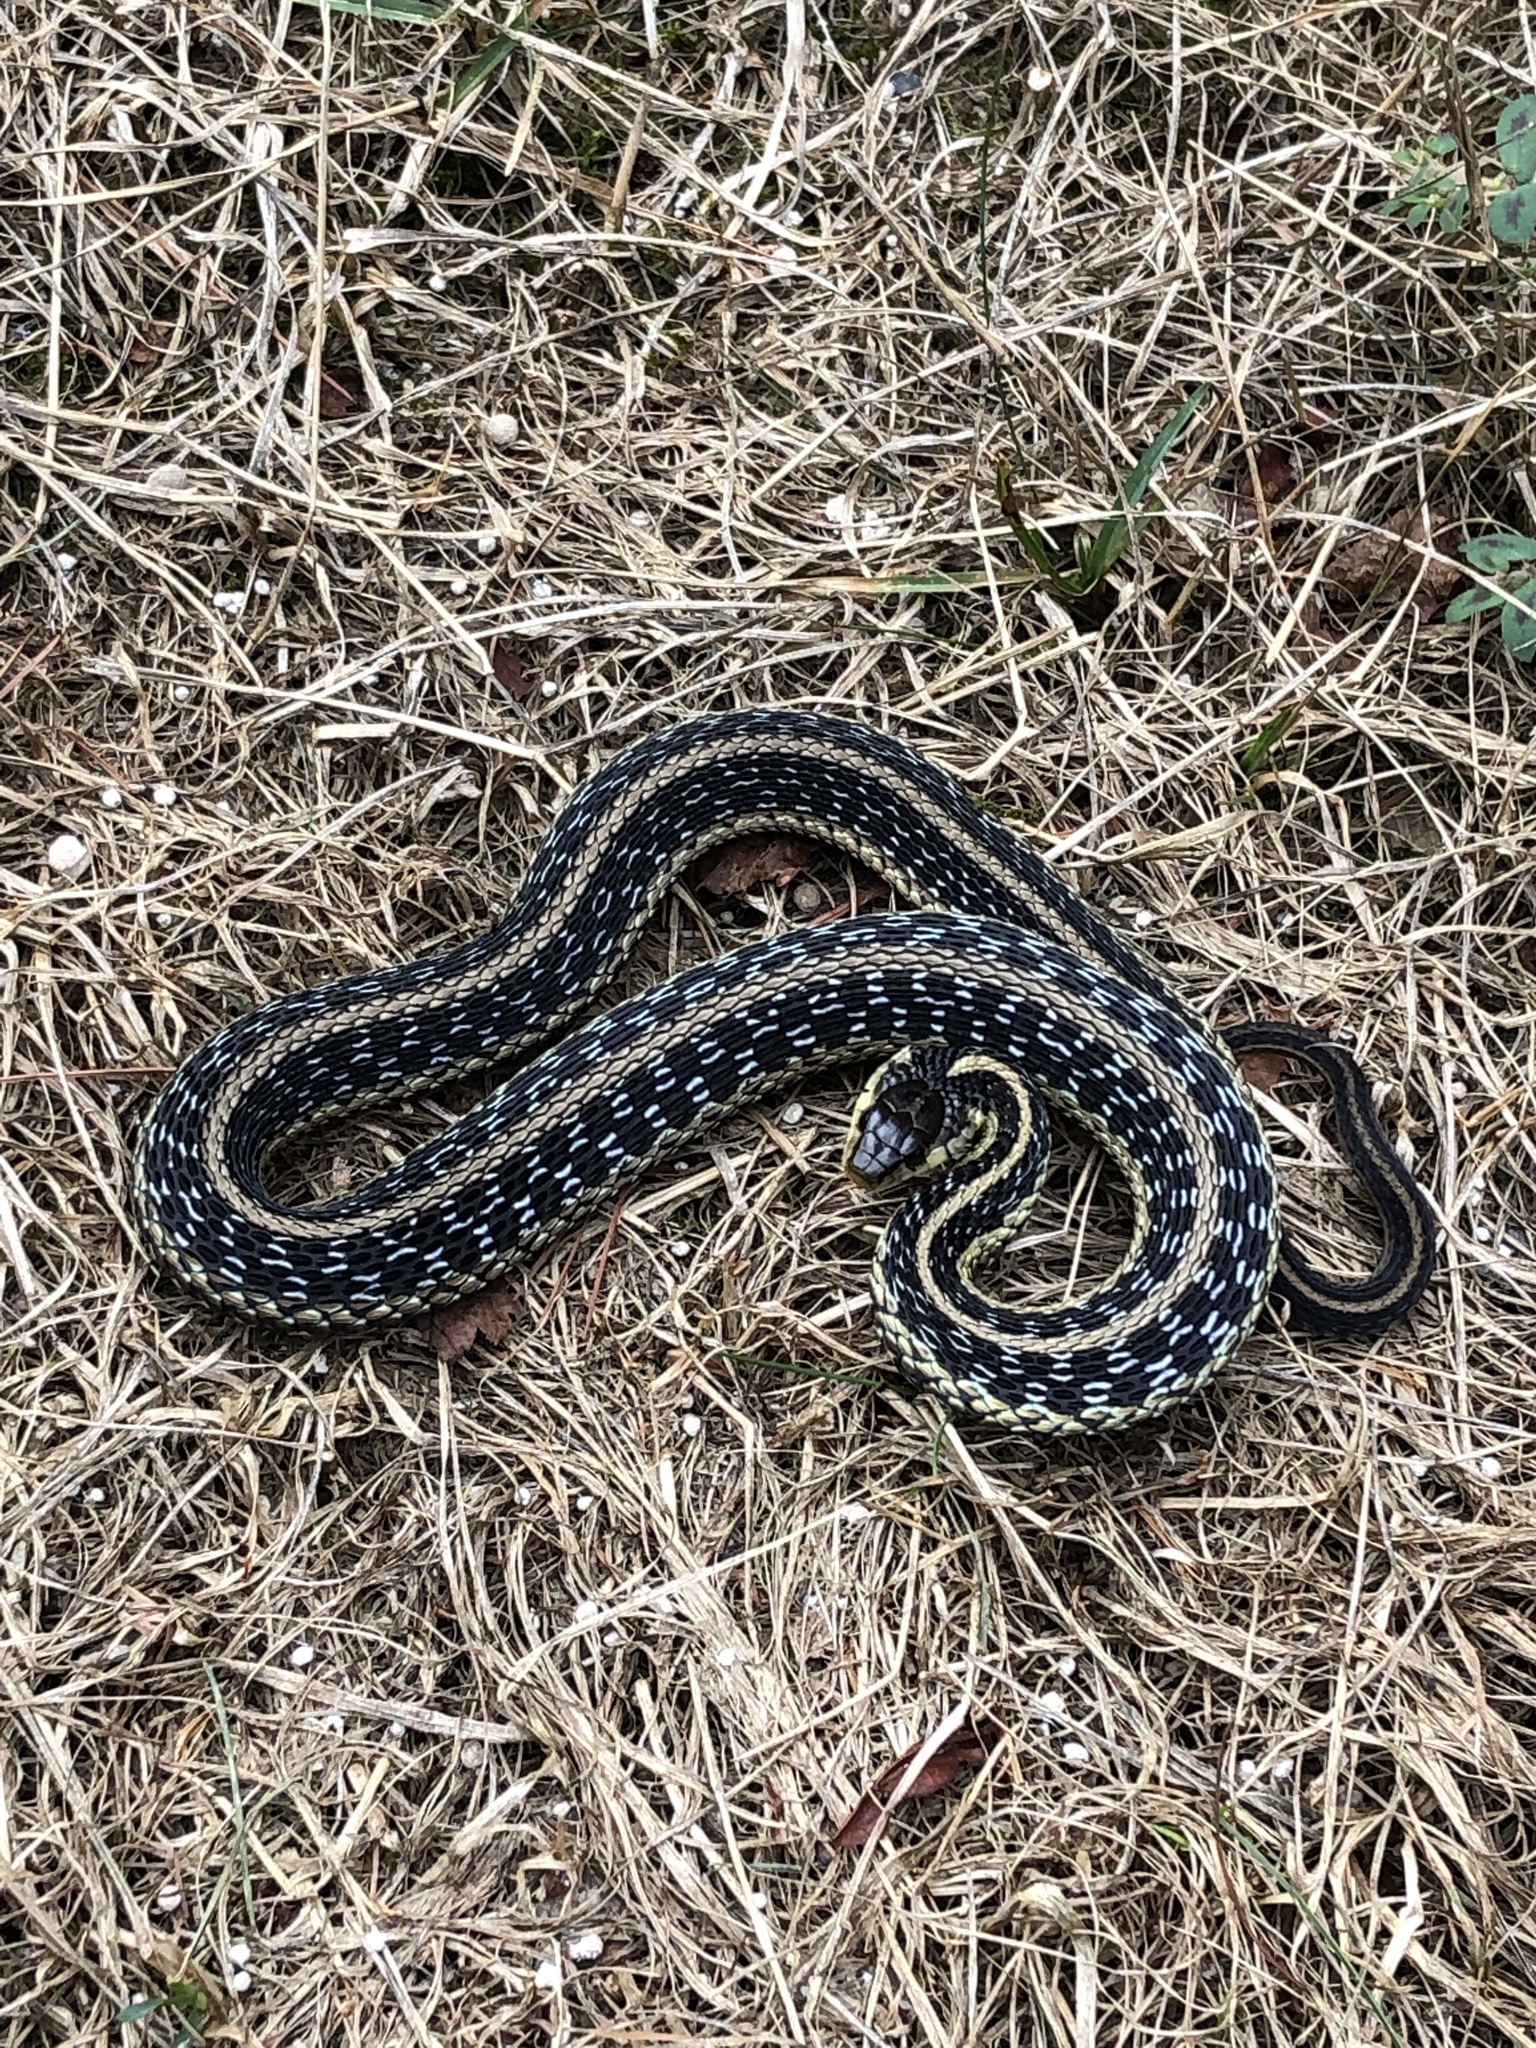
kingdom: Animalia
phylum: Chordata
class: Squamata
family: Colubridae
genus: Thamnophis
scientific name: Thamnophis sirtalis
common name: Common garter snake
